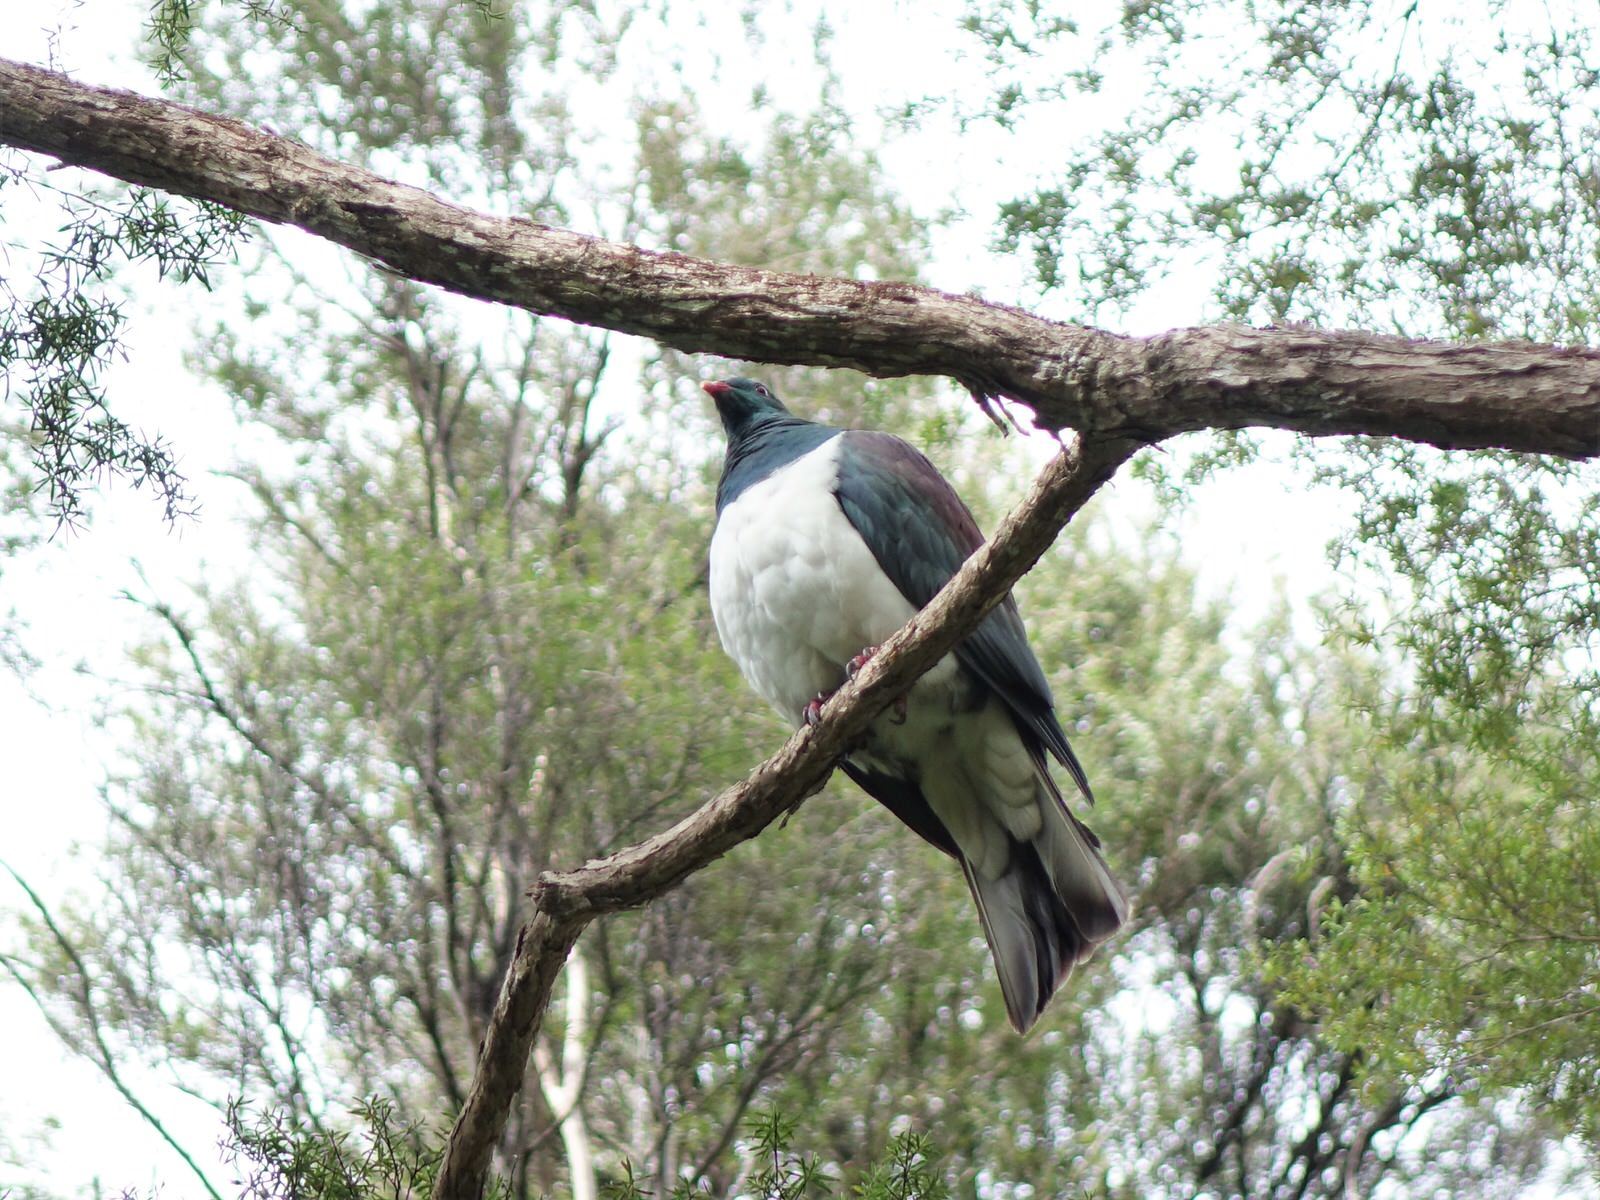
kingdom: Animalia
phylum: Chordata
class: Aves
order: Columbiformes
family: Columbidae
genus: Hemiphaga
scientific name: Hemiphaga novaeseelandiae
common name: New zealand pigeon
